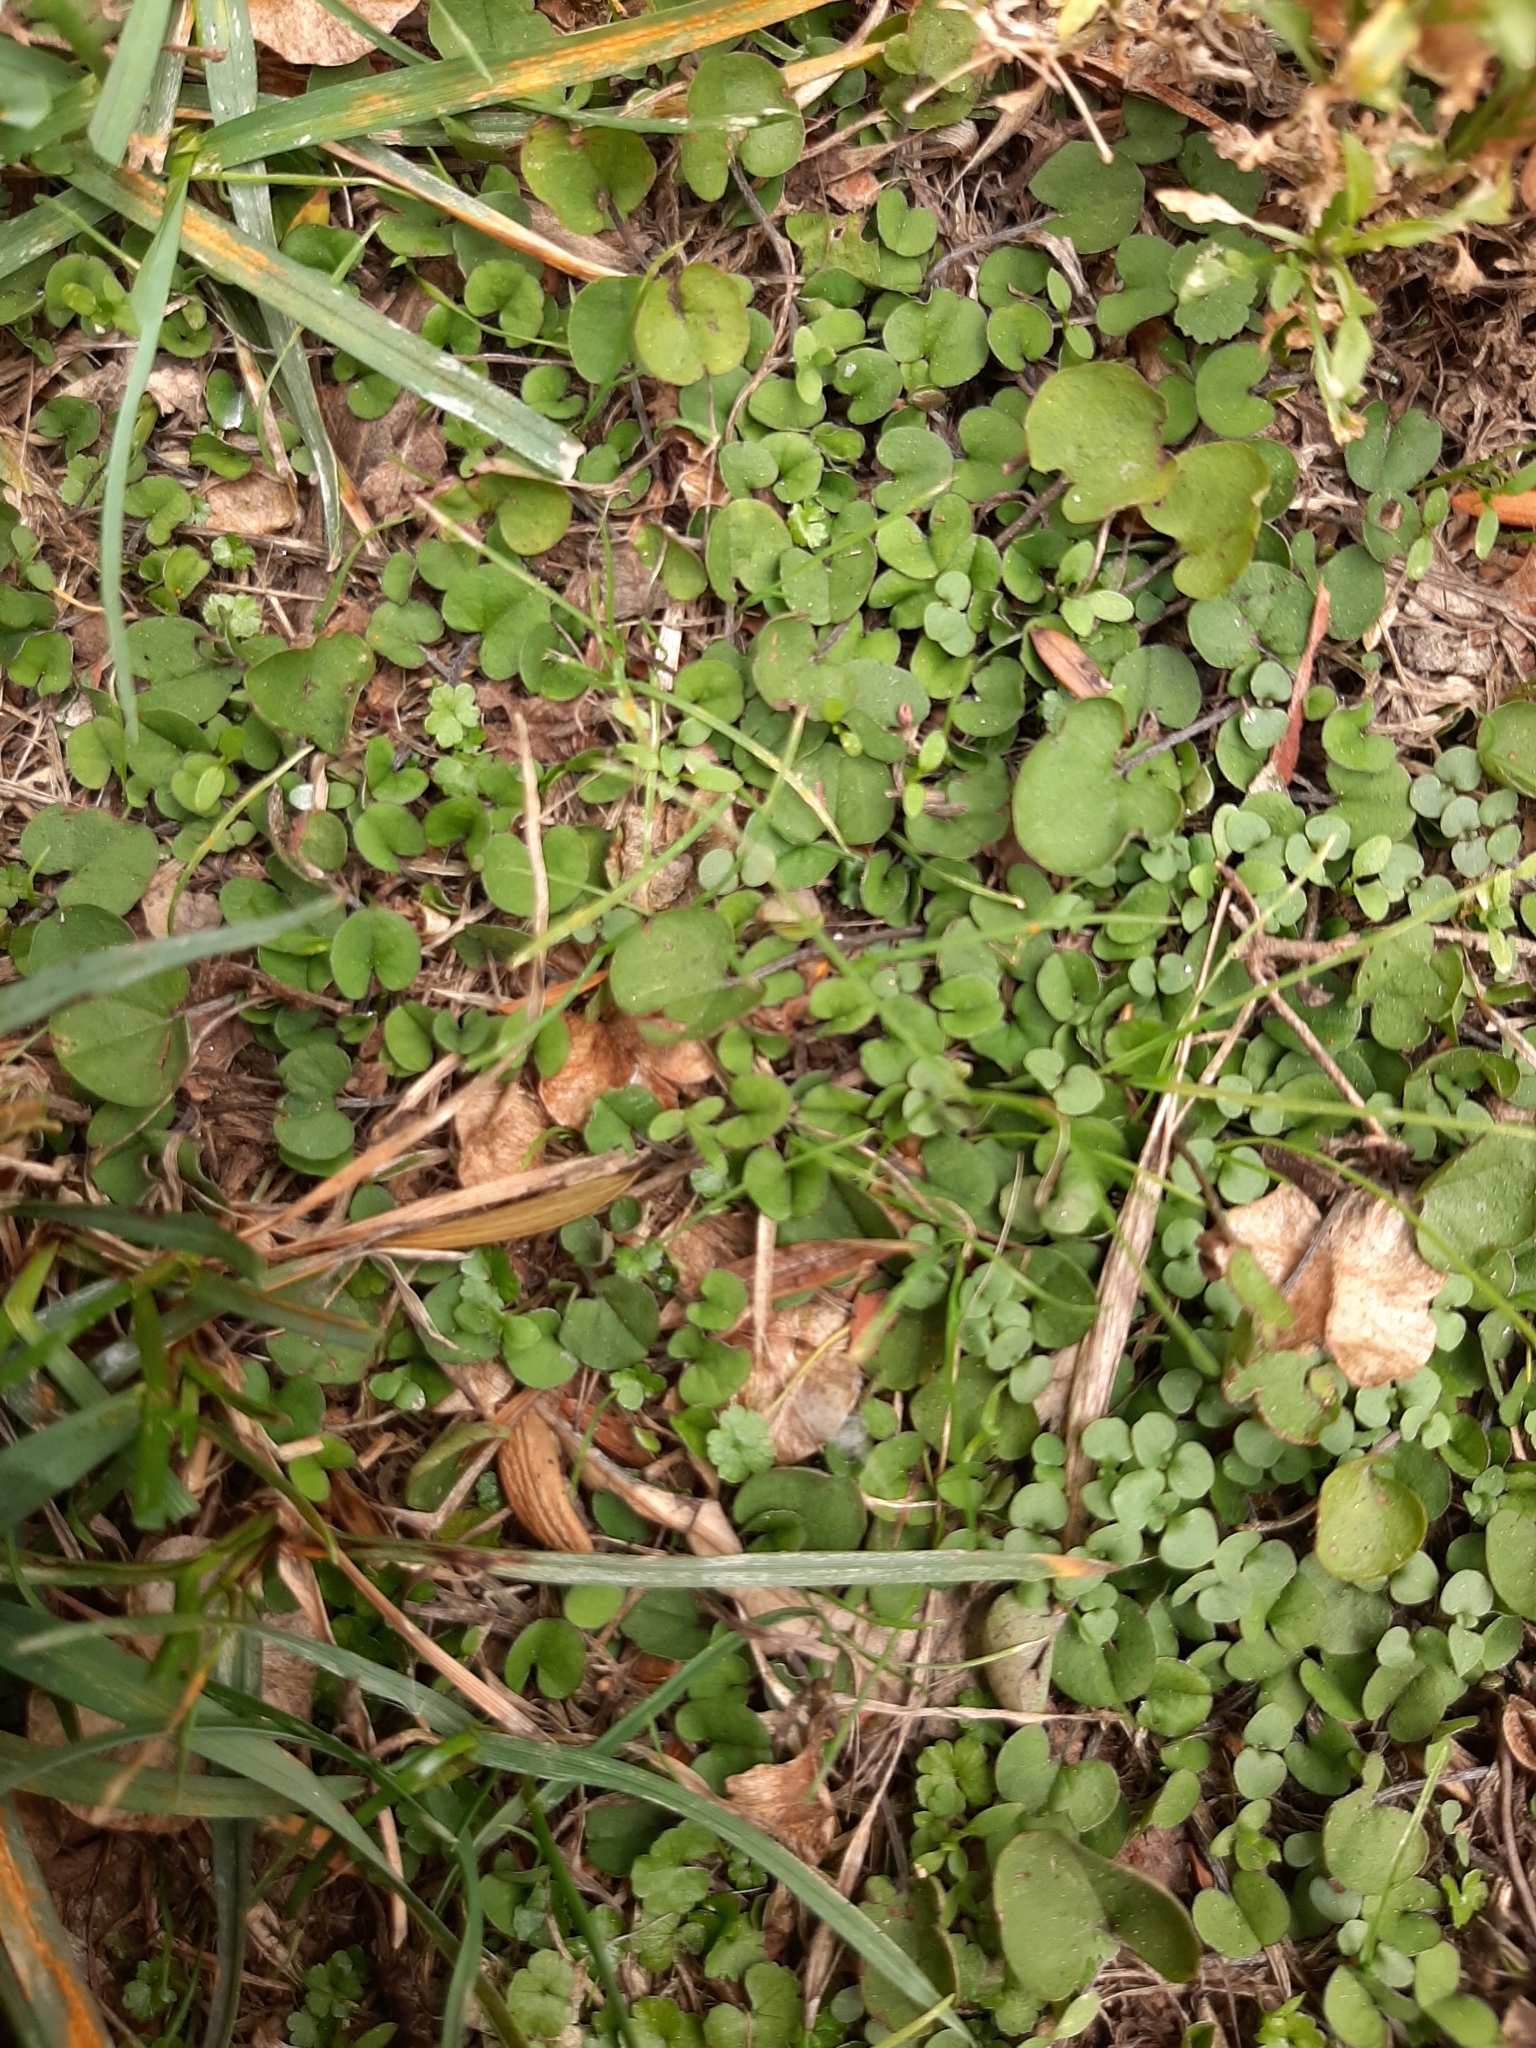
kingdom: Plantae
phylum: Tracheophyta
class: Magnoliopsida
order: Solanales
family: Convolvulaceae
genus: Dichondra
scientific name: Dichondra micrantha
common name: Kidneyweed
